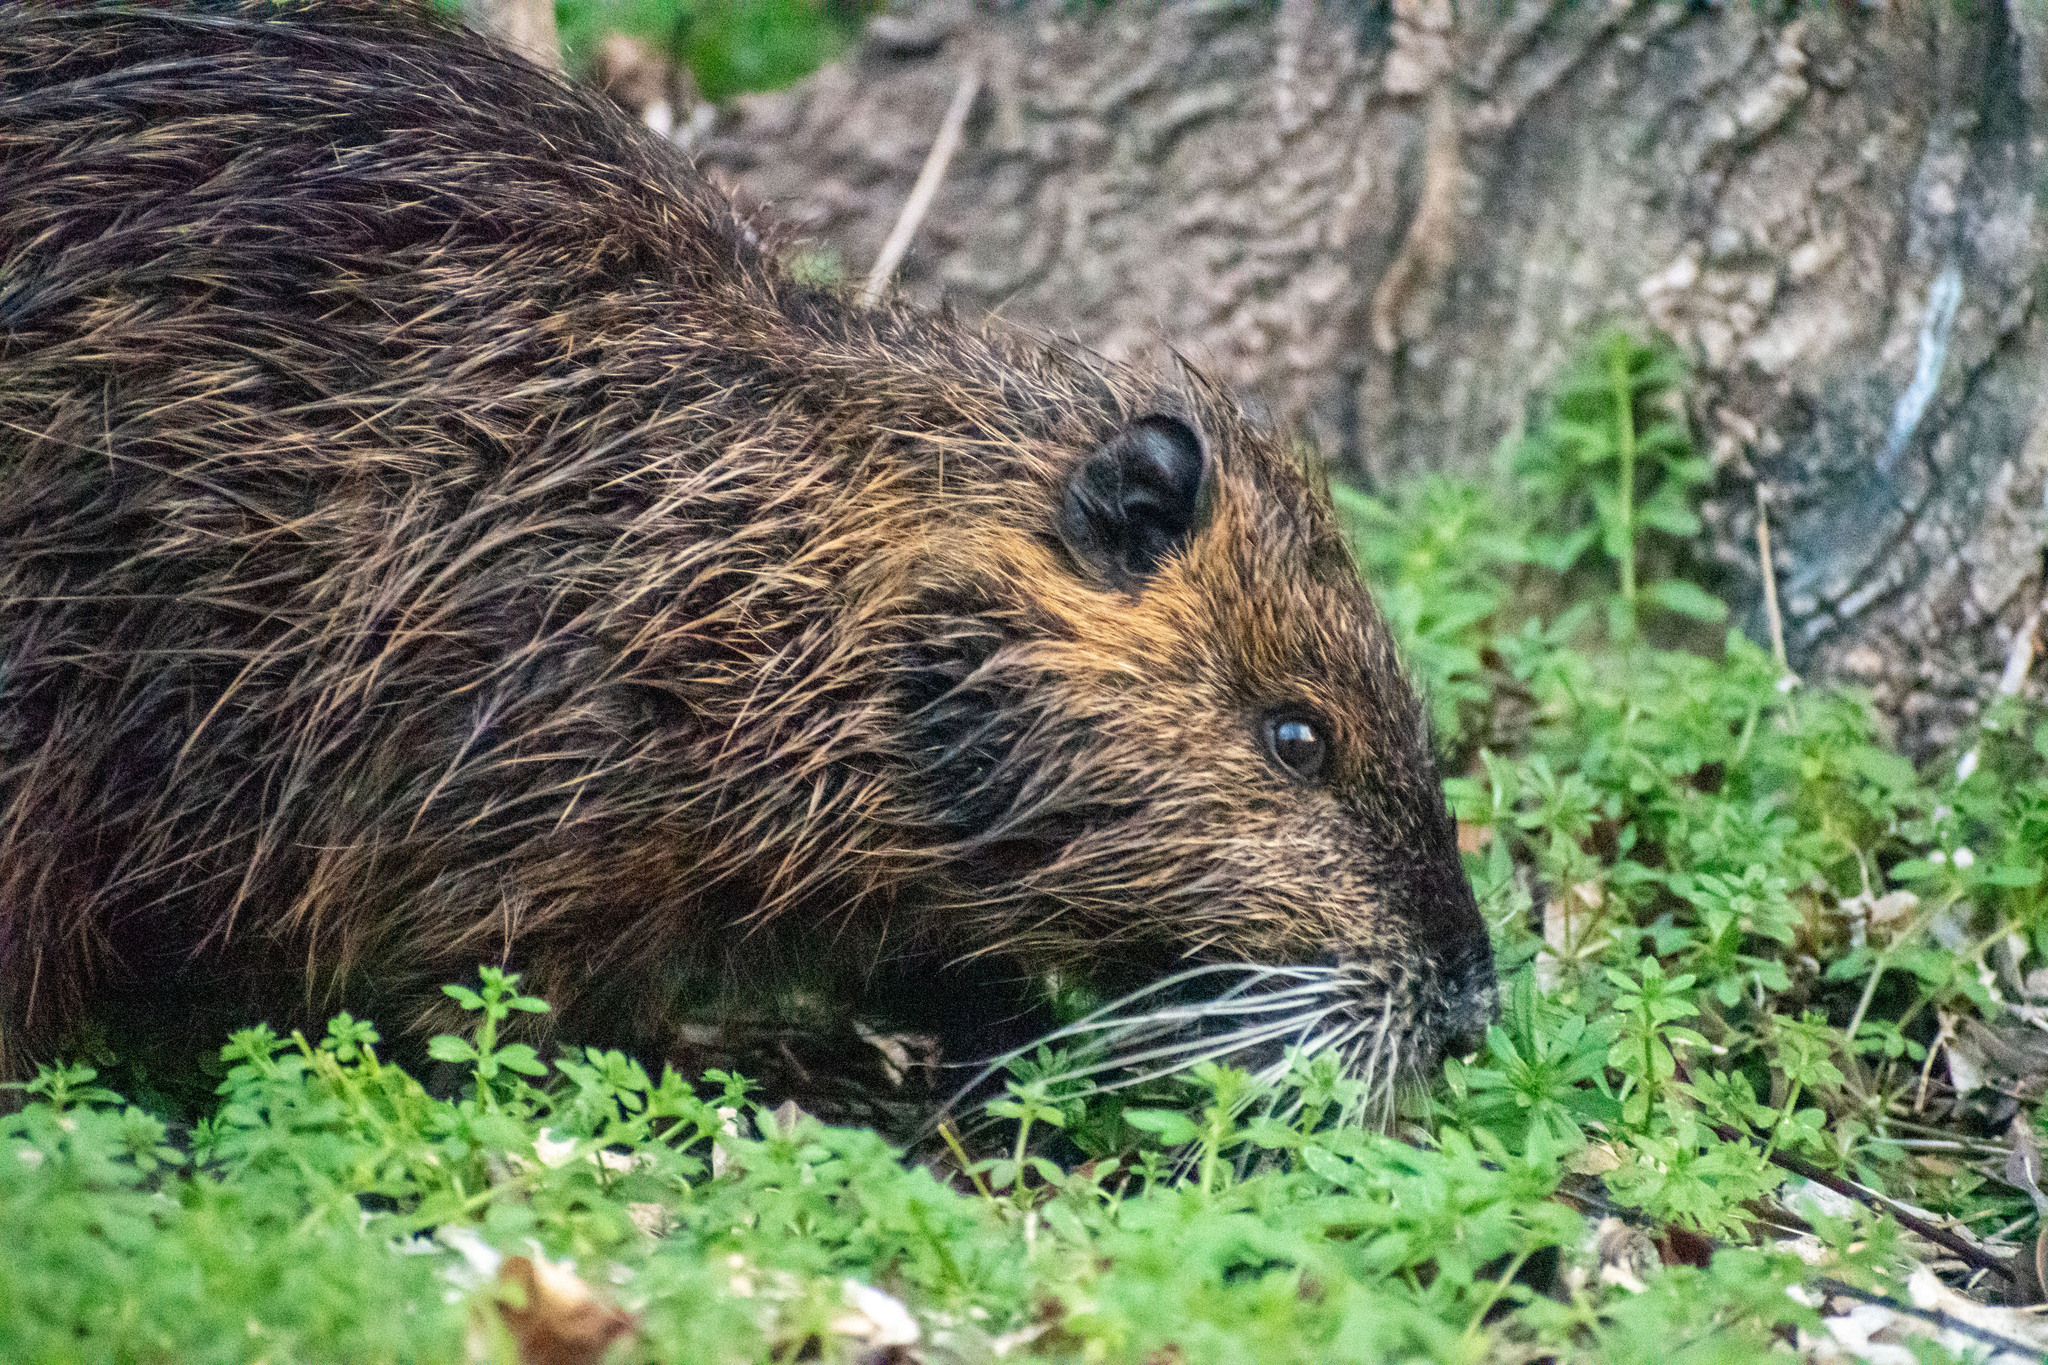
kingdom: Animalia
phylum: Chordata
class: Mammalia
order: Rodentia
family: Myocastoridae
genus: Myocastor
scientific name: Myocastor coypus
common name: Coypu
